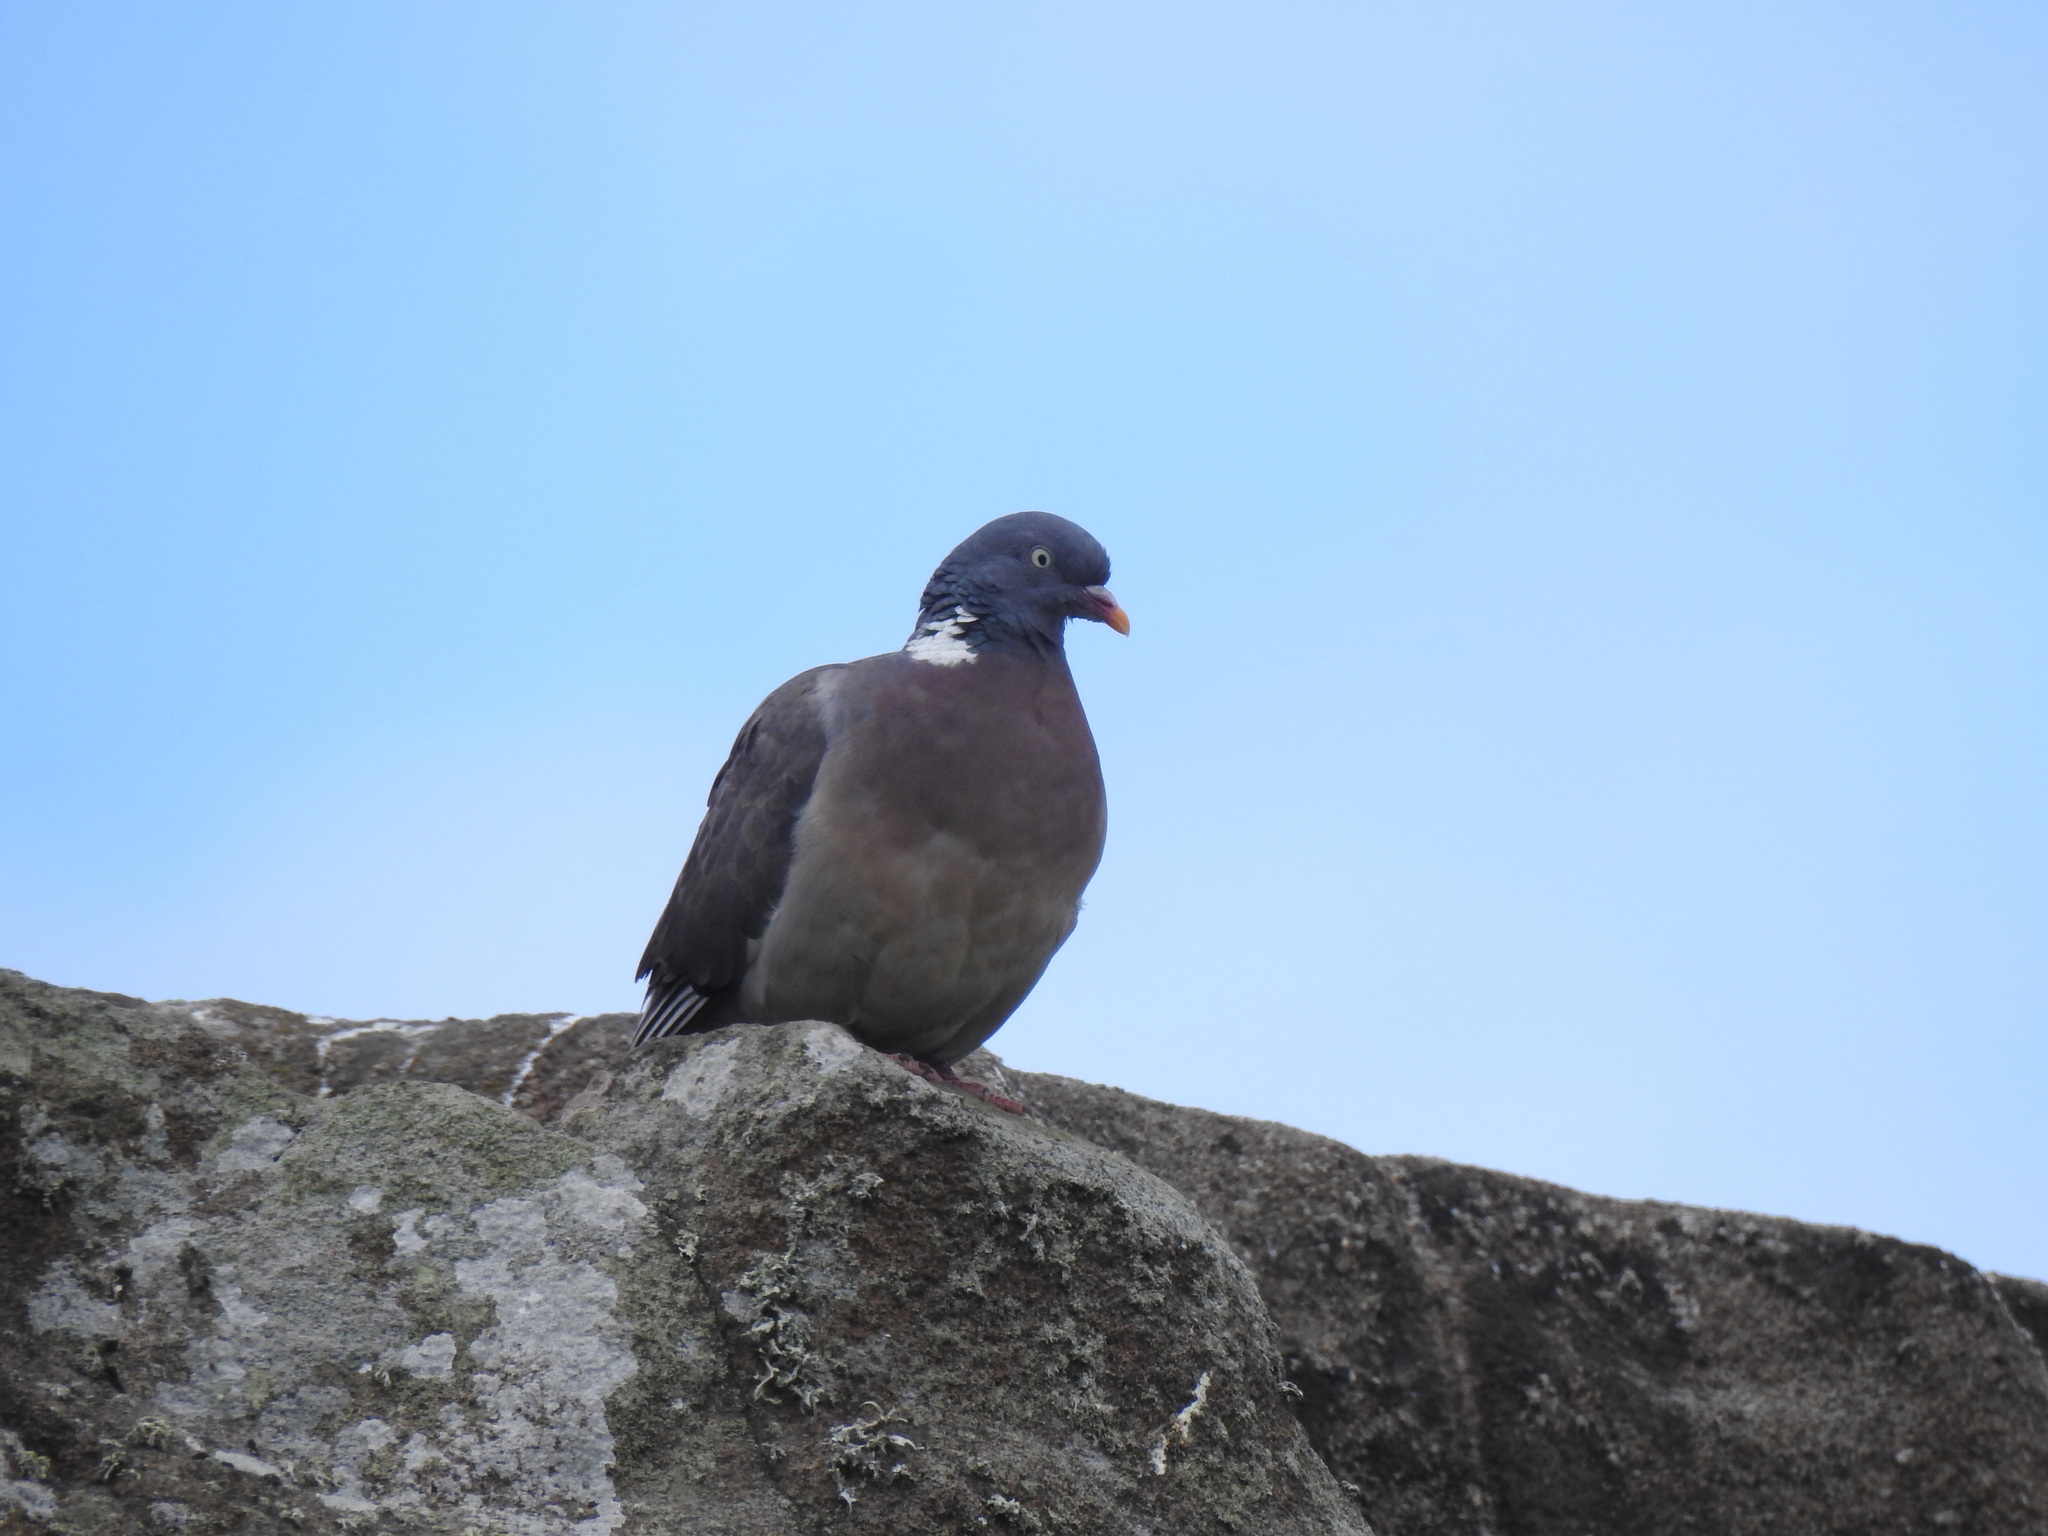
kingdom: Animalia
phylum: Chordata
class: Aves
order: Columbiformes
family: Columbidae
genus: Columba
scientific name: Columba palumbus
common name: Common wood pigeon
